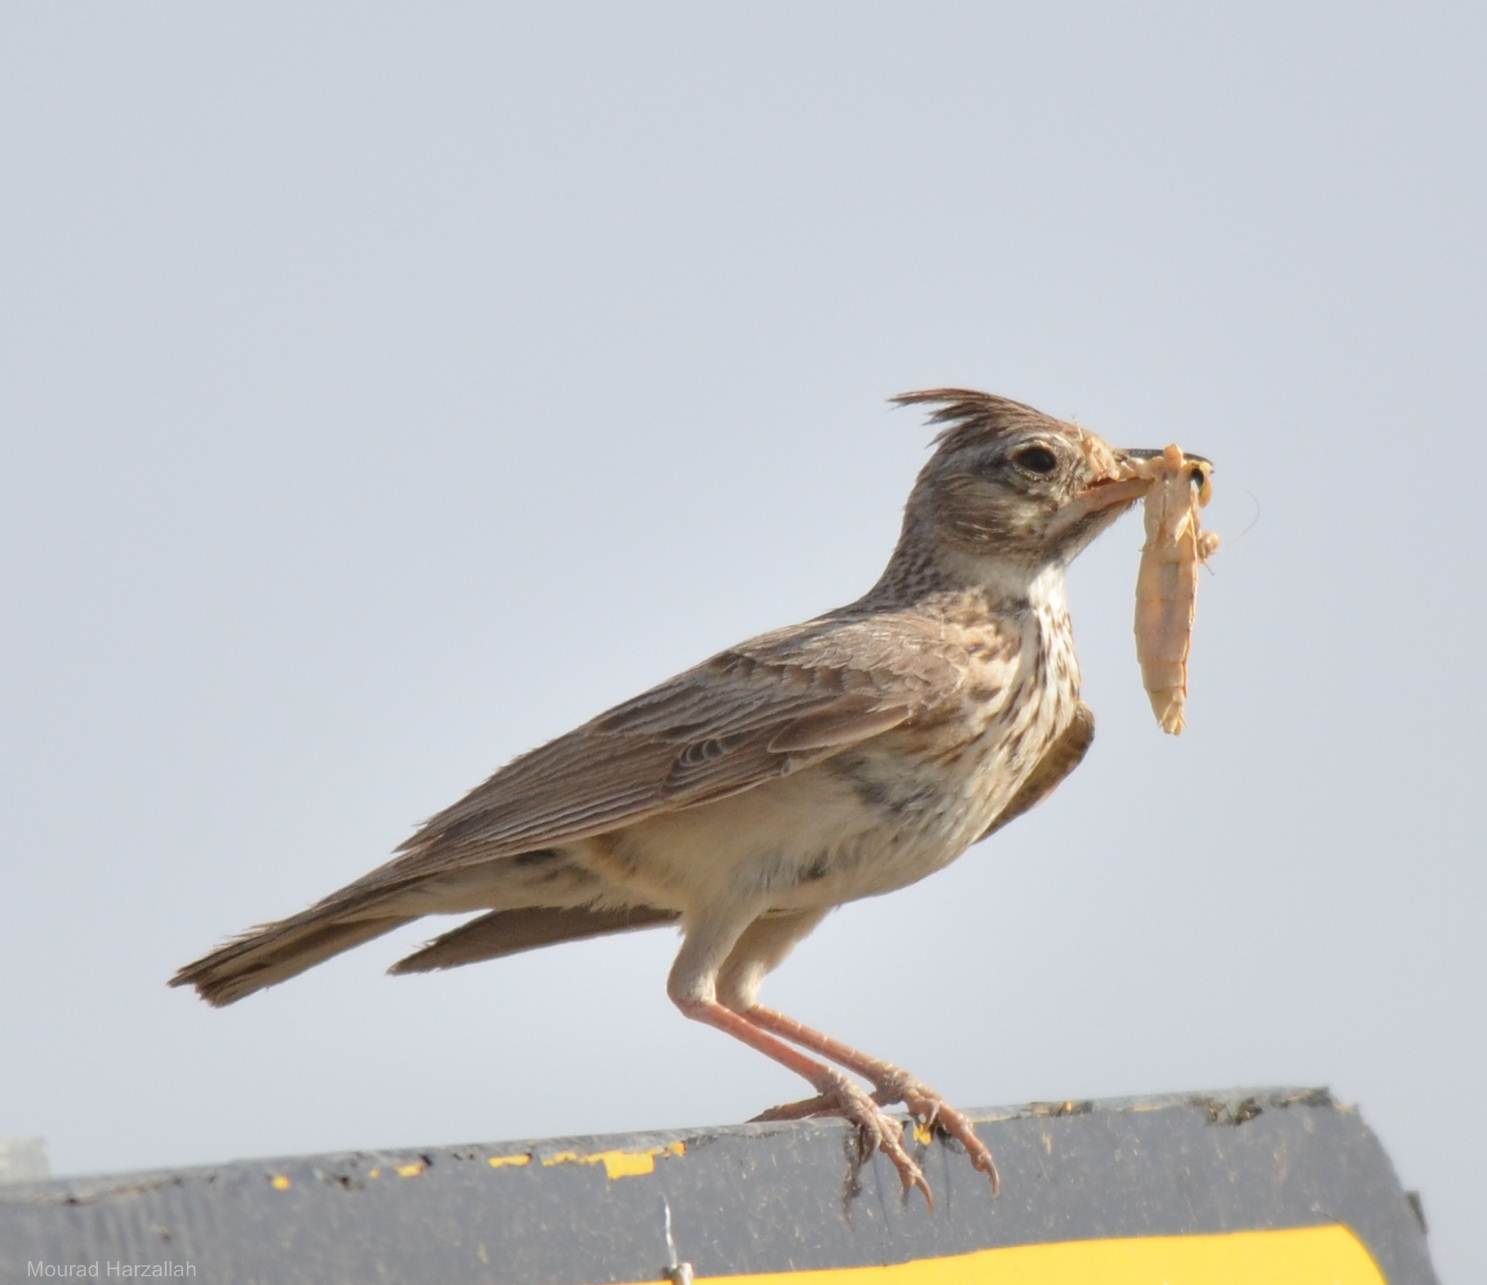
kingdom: Animalia
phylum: Chordata
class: Aves
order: Passeriformes
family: Alaudidae
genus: Galerida
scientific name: Galerida cristata
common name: Crested lark
